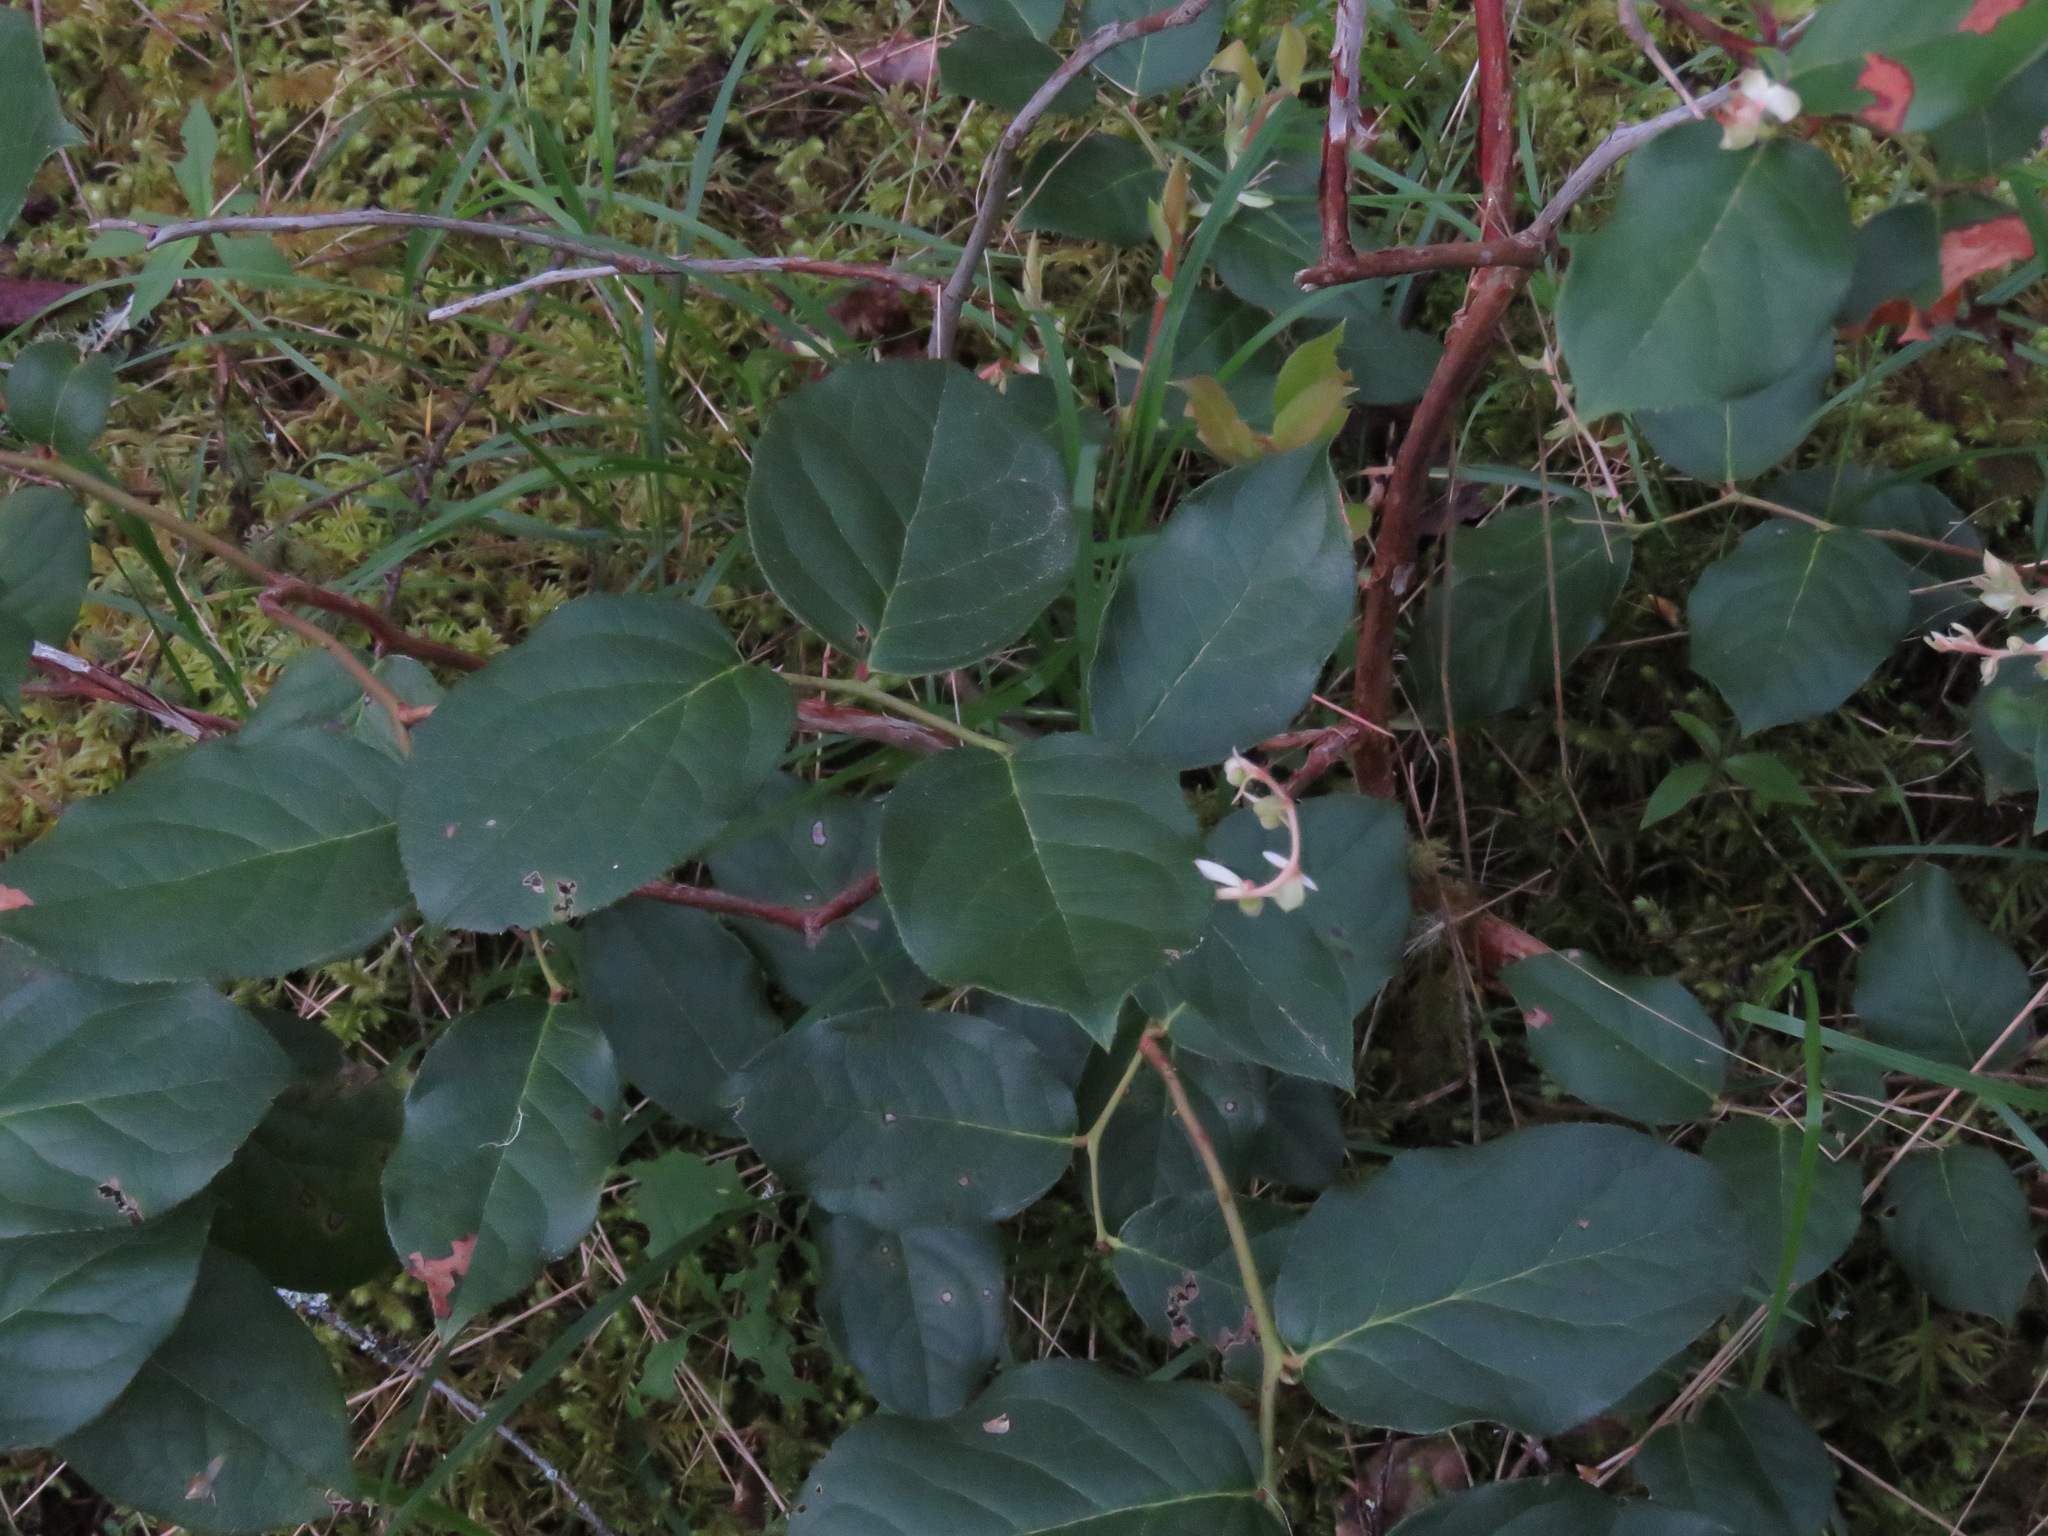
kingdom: Plantae
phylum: Tracheophyta
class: Magnoliopsida
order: Ericales
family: Ericaceae
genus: Gaultheria
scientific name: Gaultheria shallon
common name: Shallon
